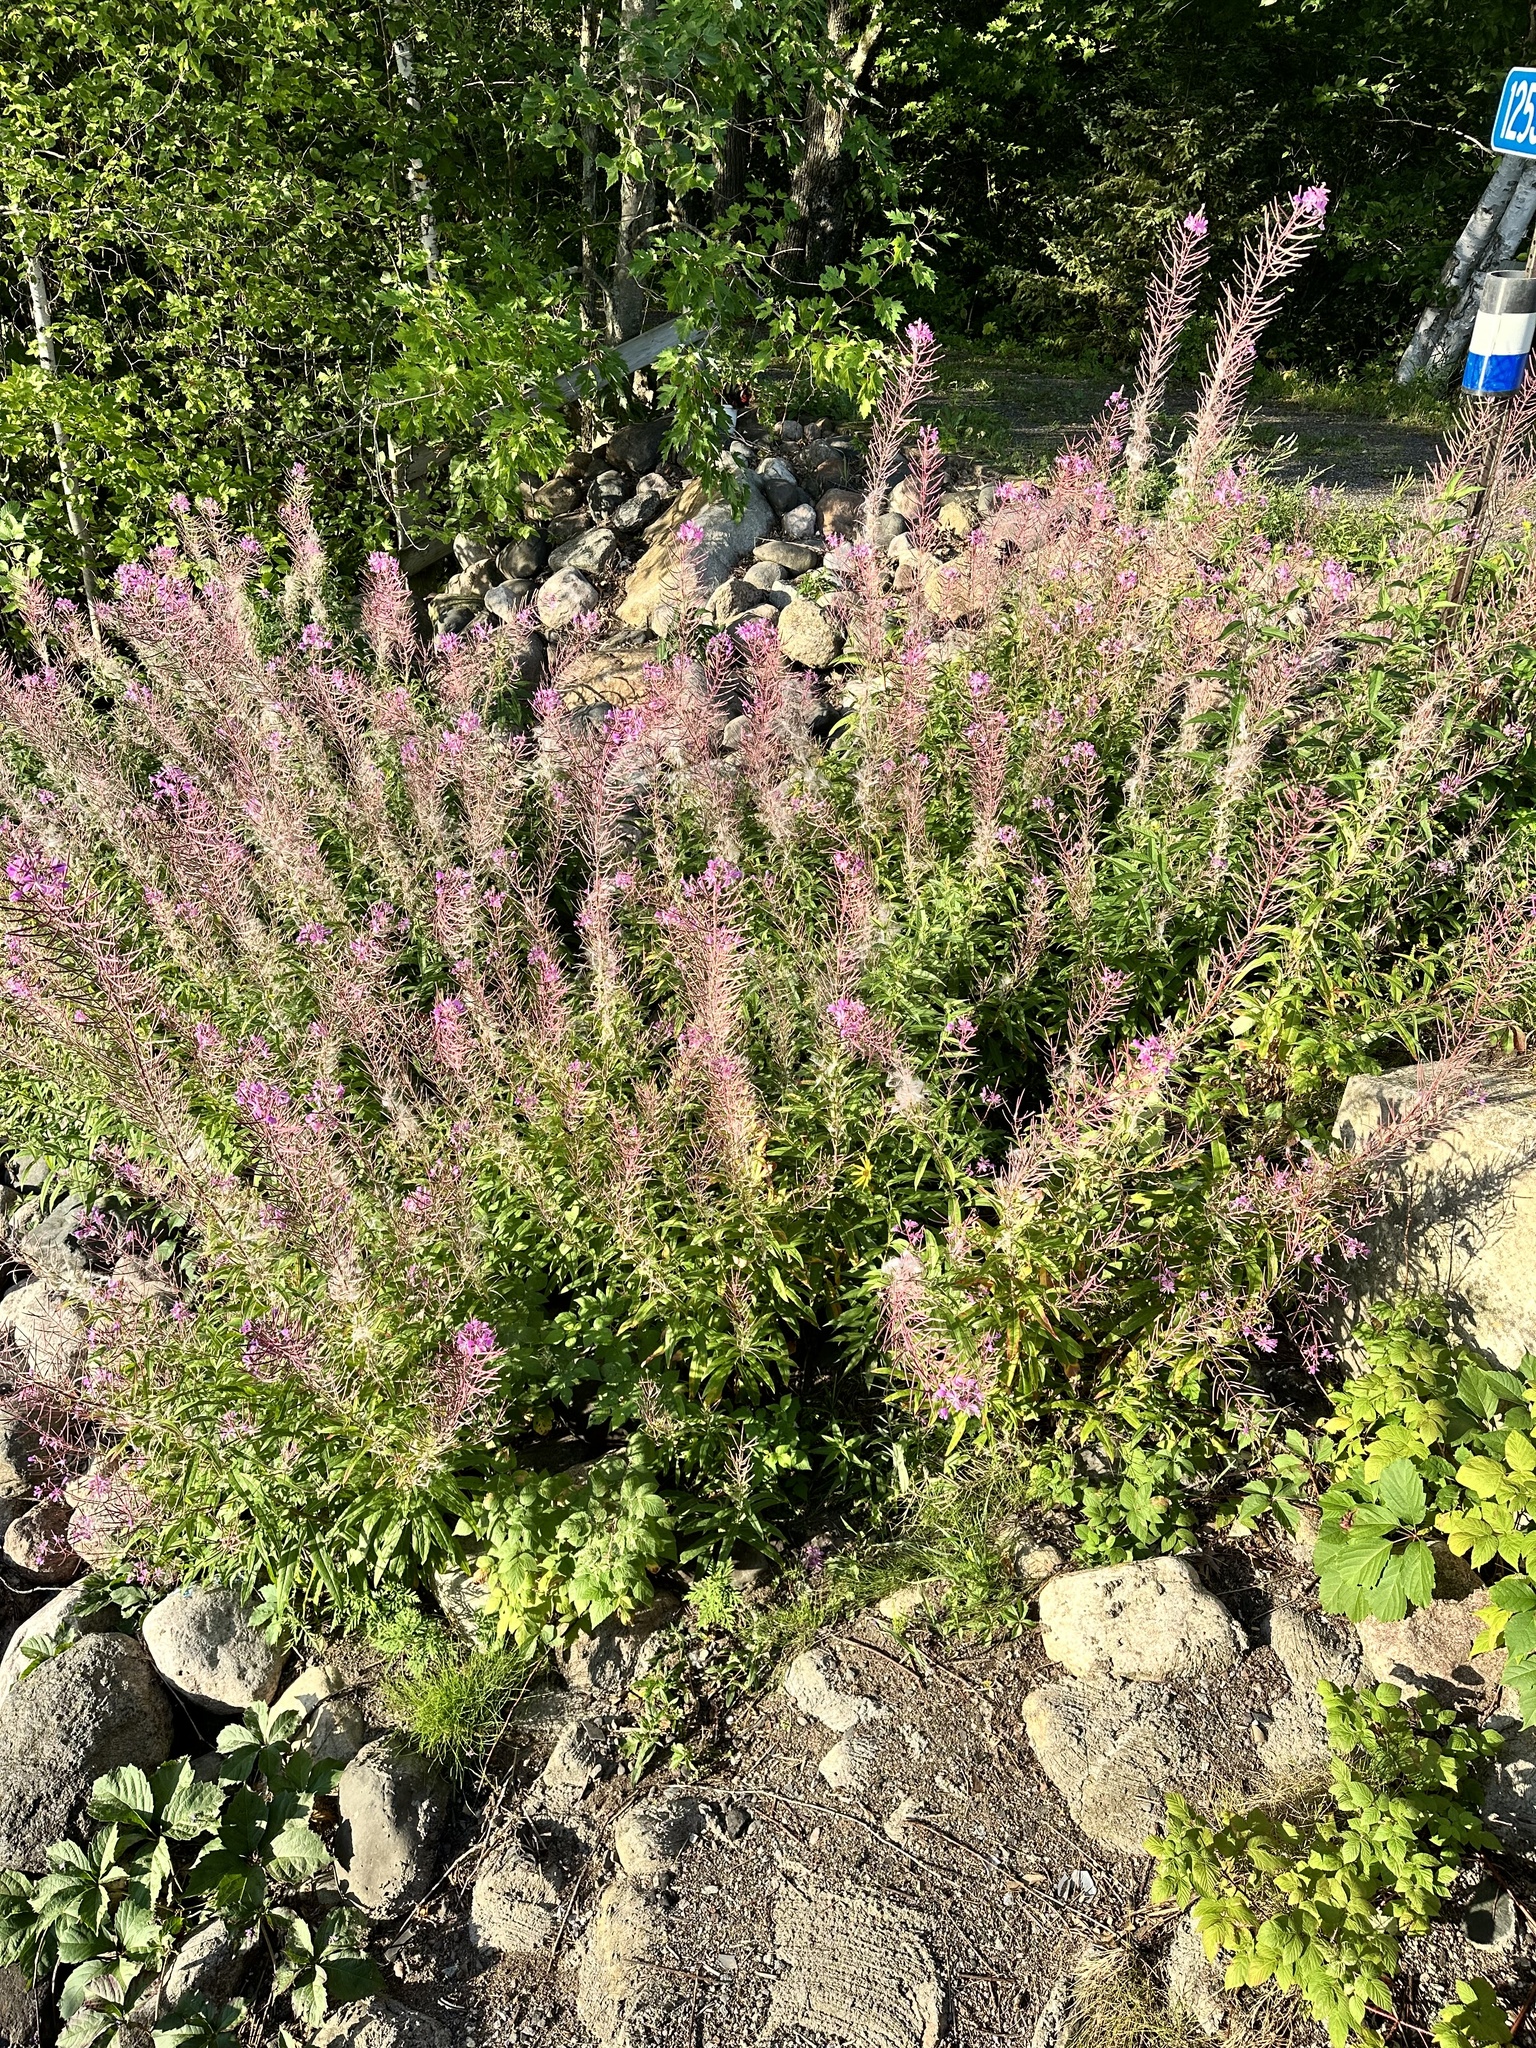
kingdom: Plantae
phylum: Tracheophyta
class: Magnoliopsida
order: Myrtales
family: Onagraceae
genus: Chamaenerion
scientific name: Chamaenerion angustifolium
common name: Fireweed
